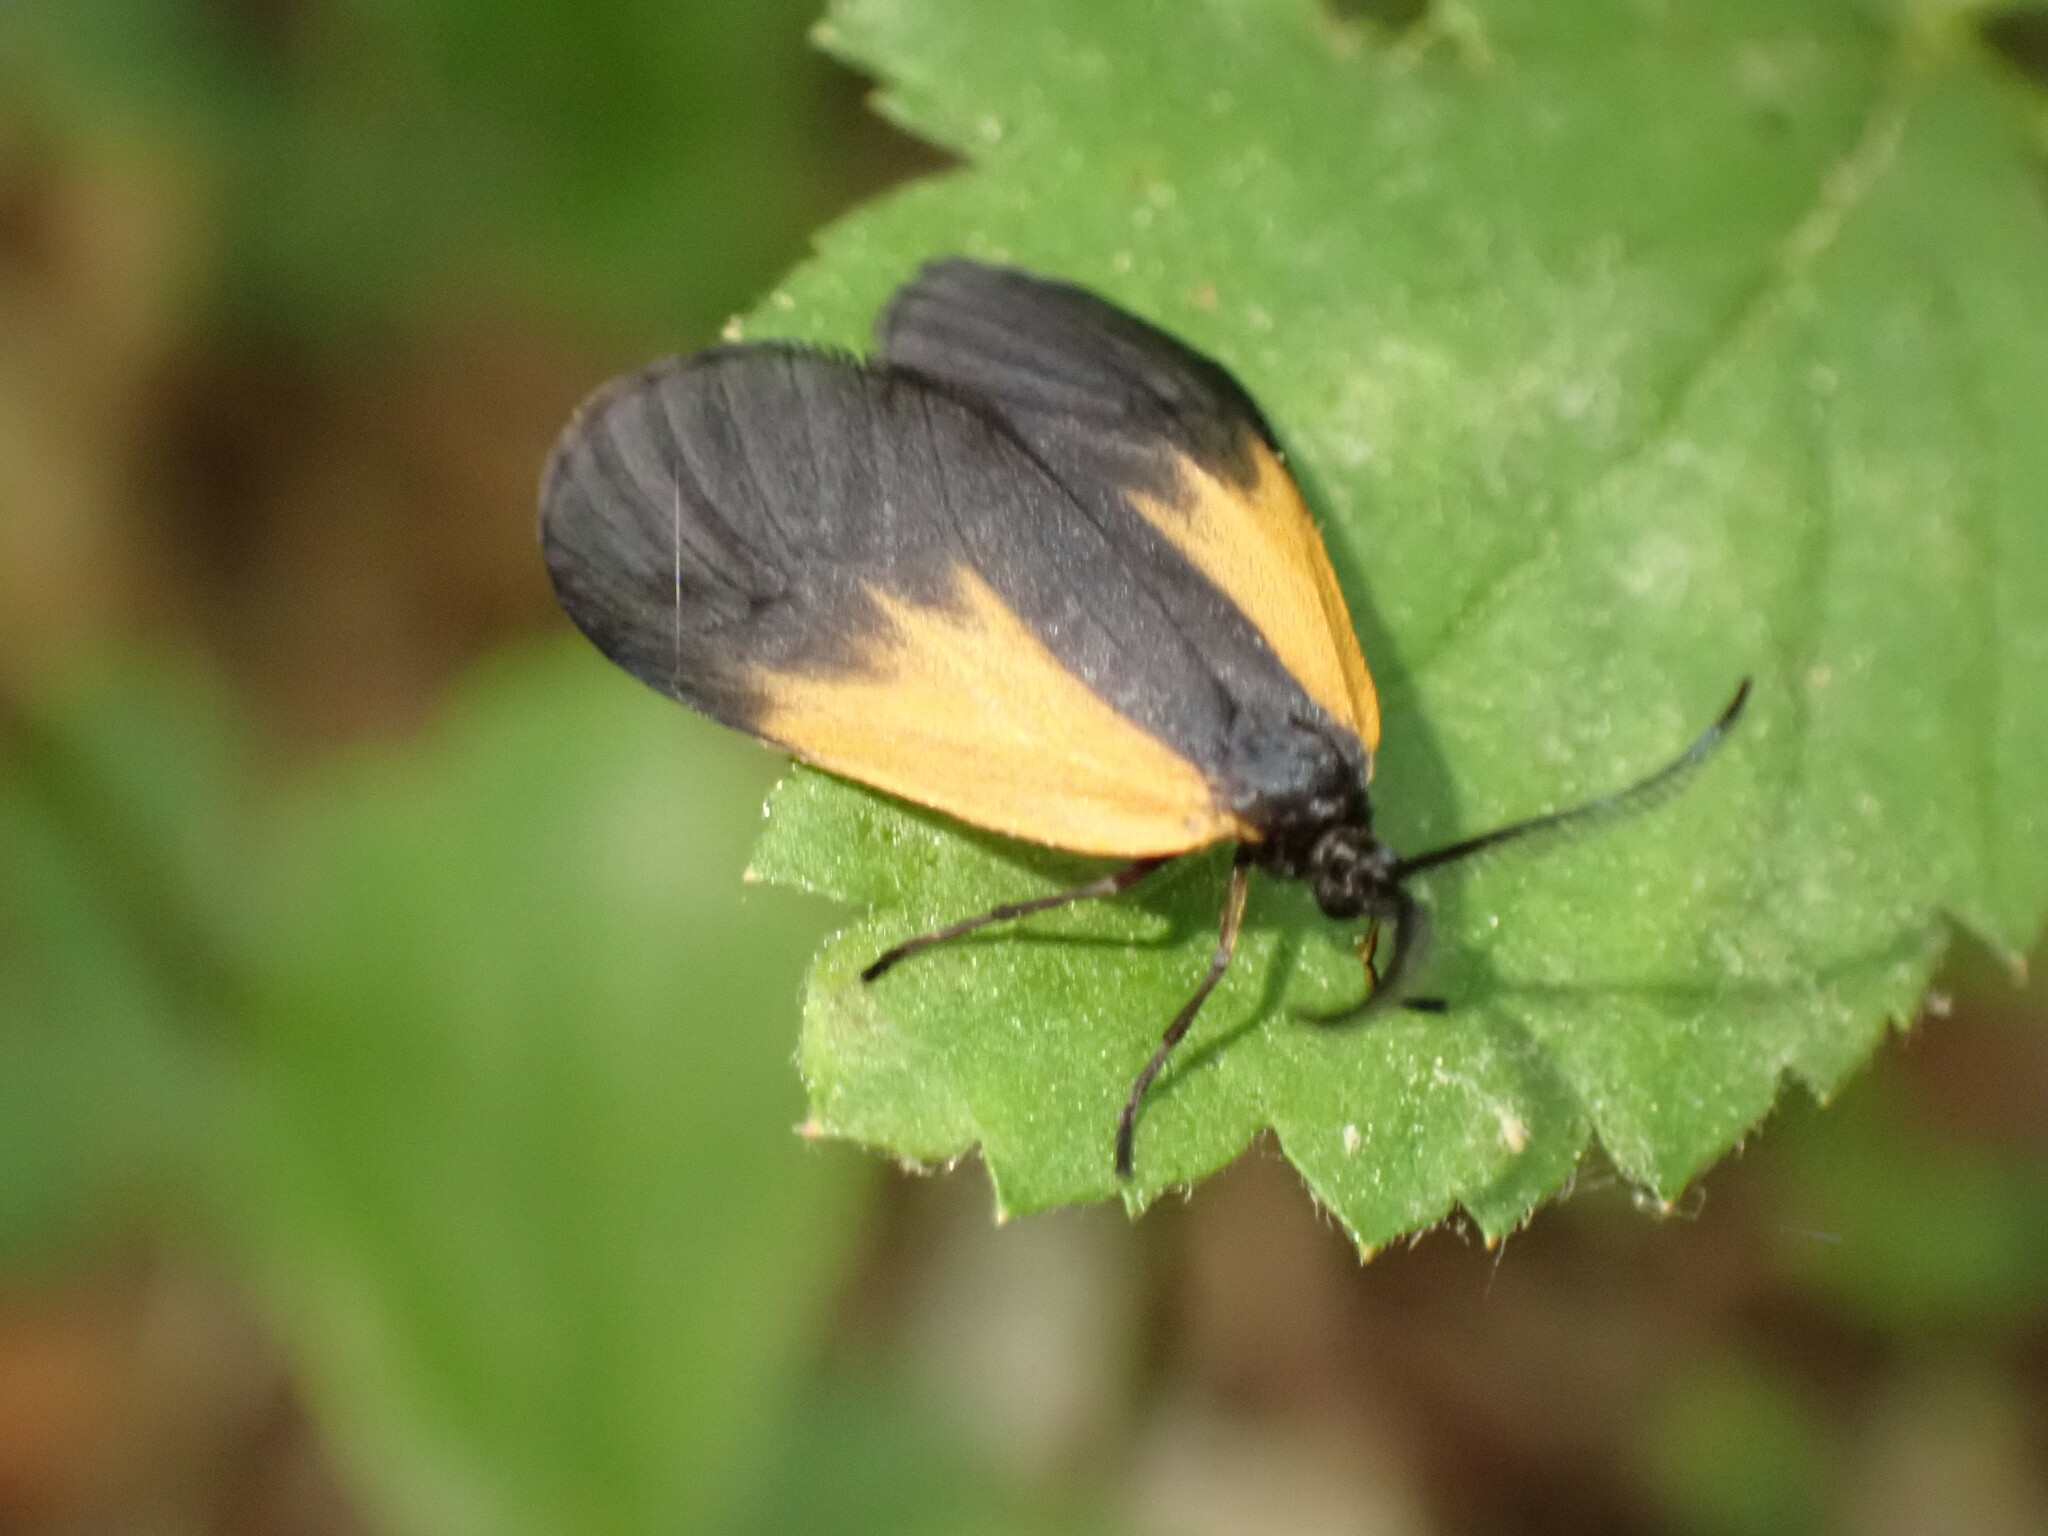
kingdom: Animalia
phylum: Arthropoda
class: Insecta
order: Lepidoptera
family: Zygaenidae
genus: Malthaca
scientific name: Malthaca dimidiata
